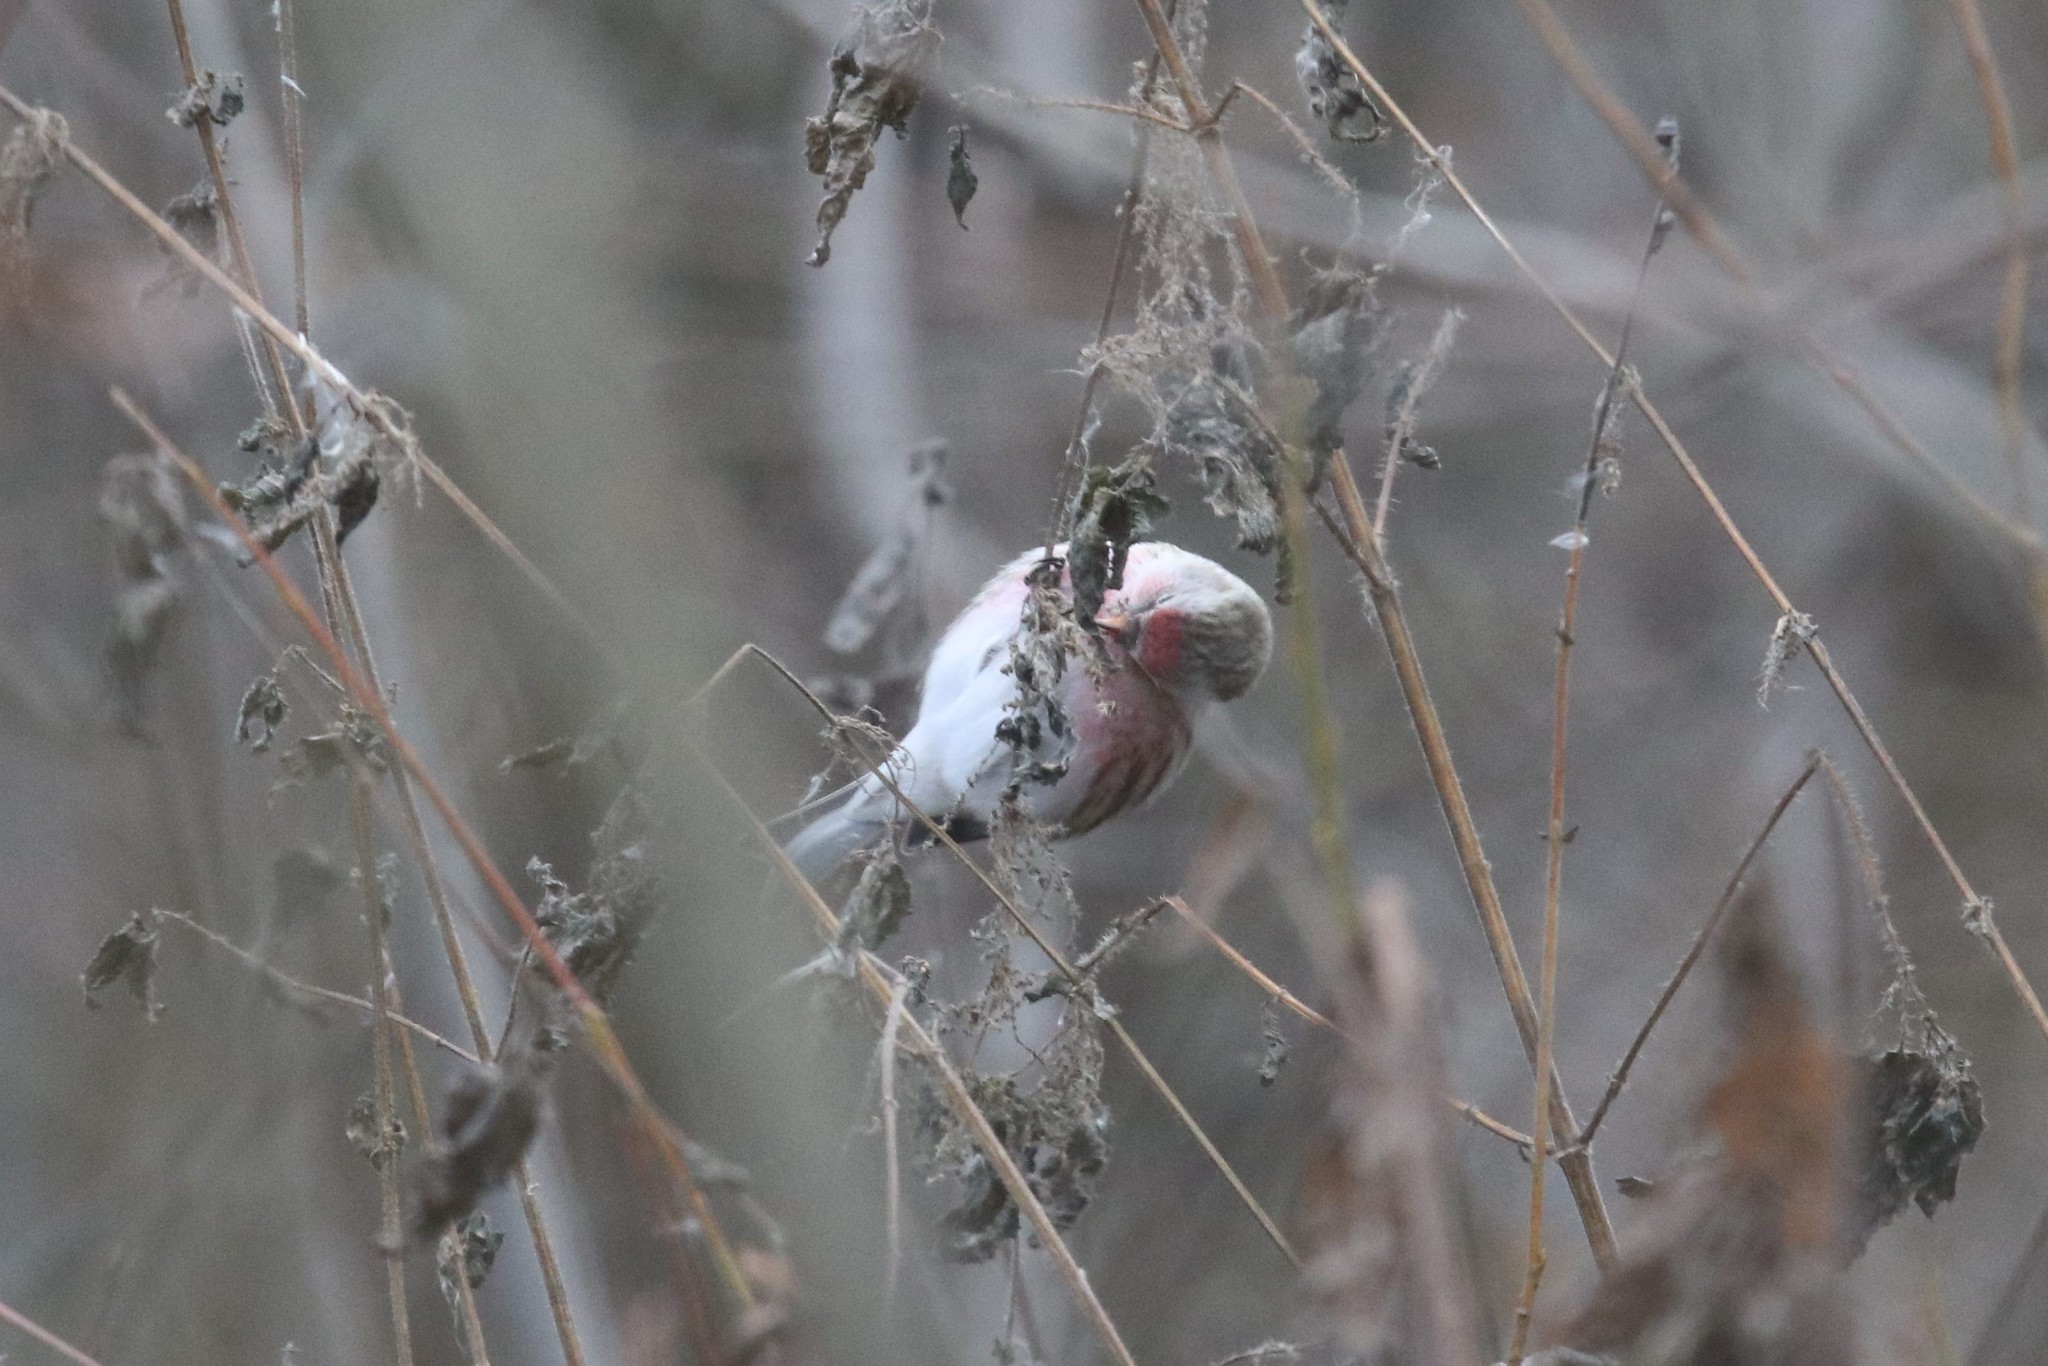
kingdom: Animalia
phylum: Chordata
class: Aves
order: Passeriformes
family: Fringillidae
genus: Acanthis
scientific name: Acanthis flammea
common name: Common redpoll
